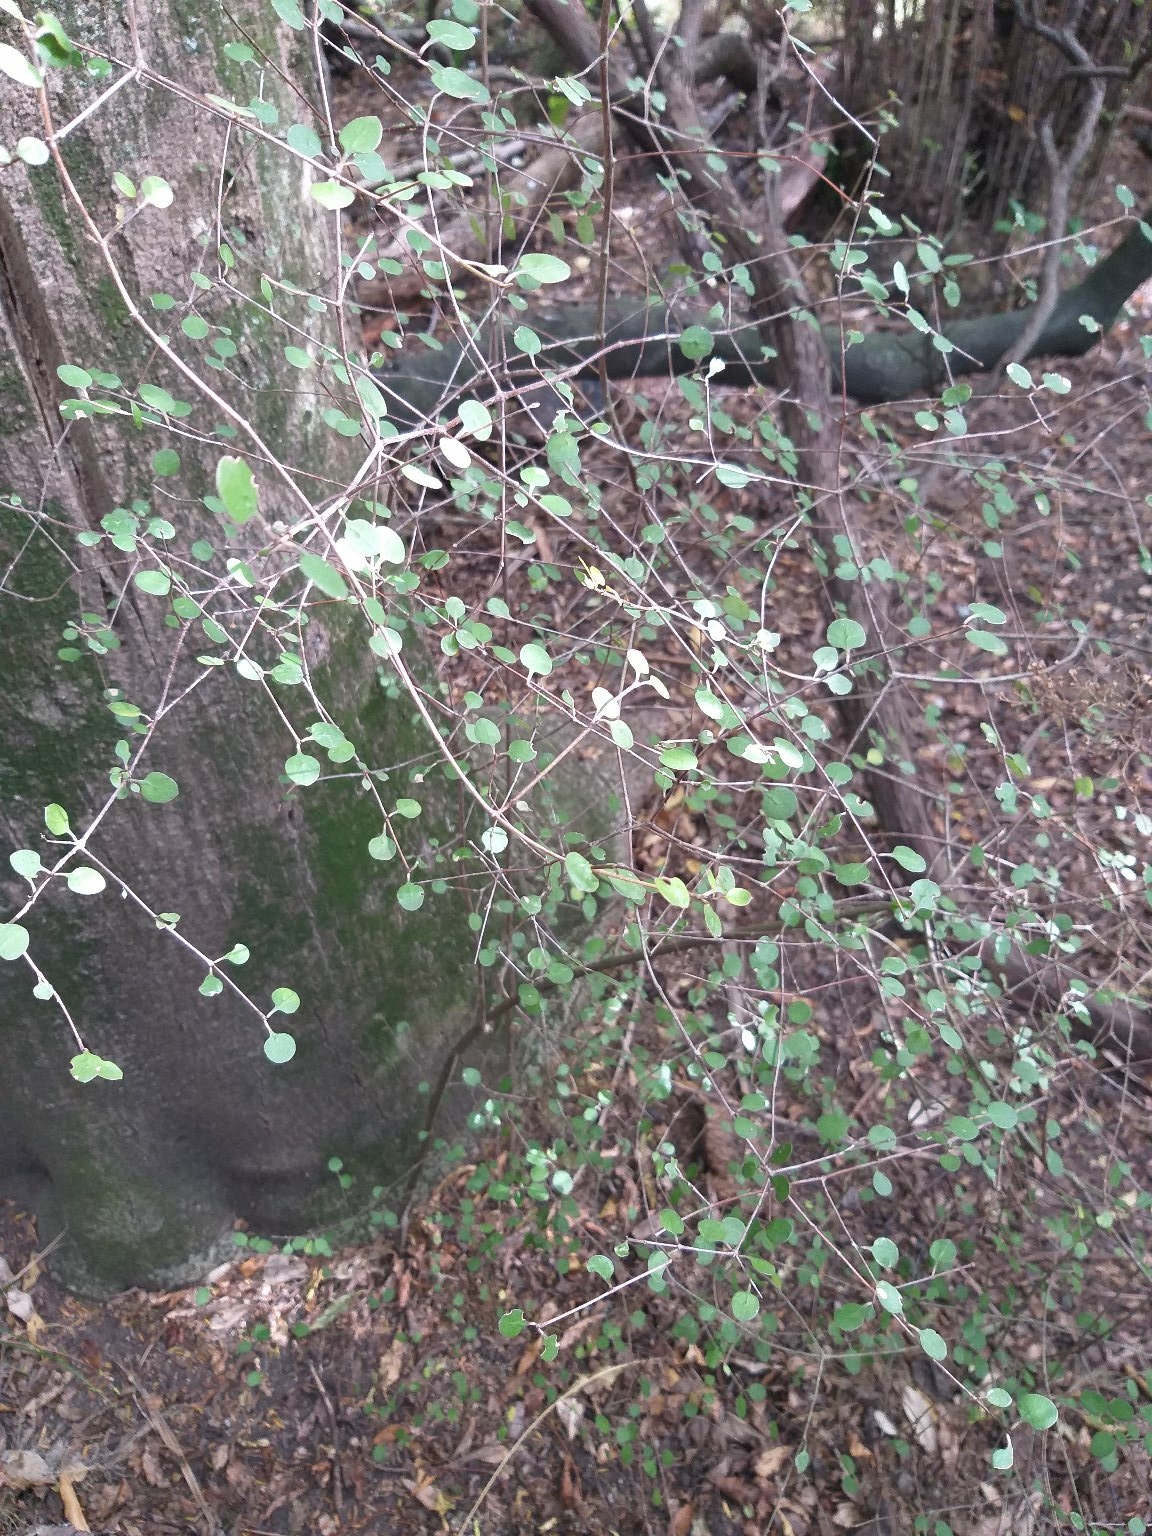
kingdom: Plantae
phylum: Tracheophyta
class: Magnoliopsida
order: Gentianales
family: Rubiaceae
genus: Coprosma
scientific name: Coprosma crassifolia
